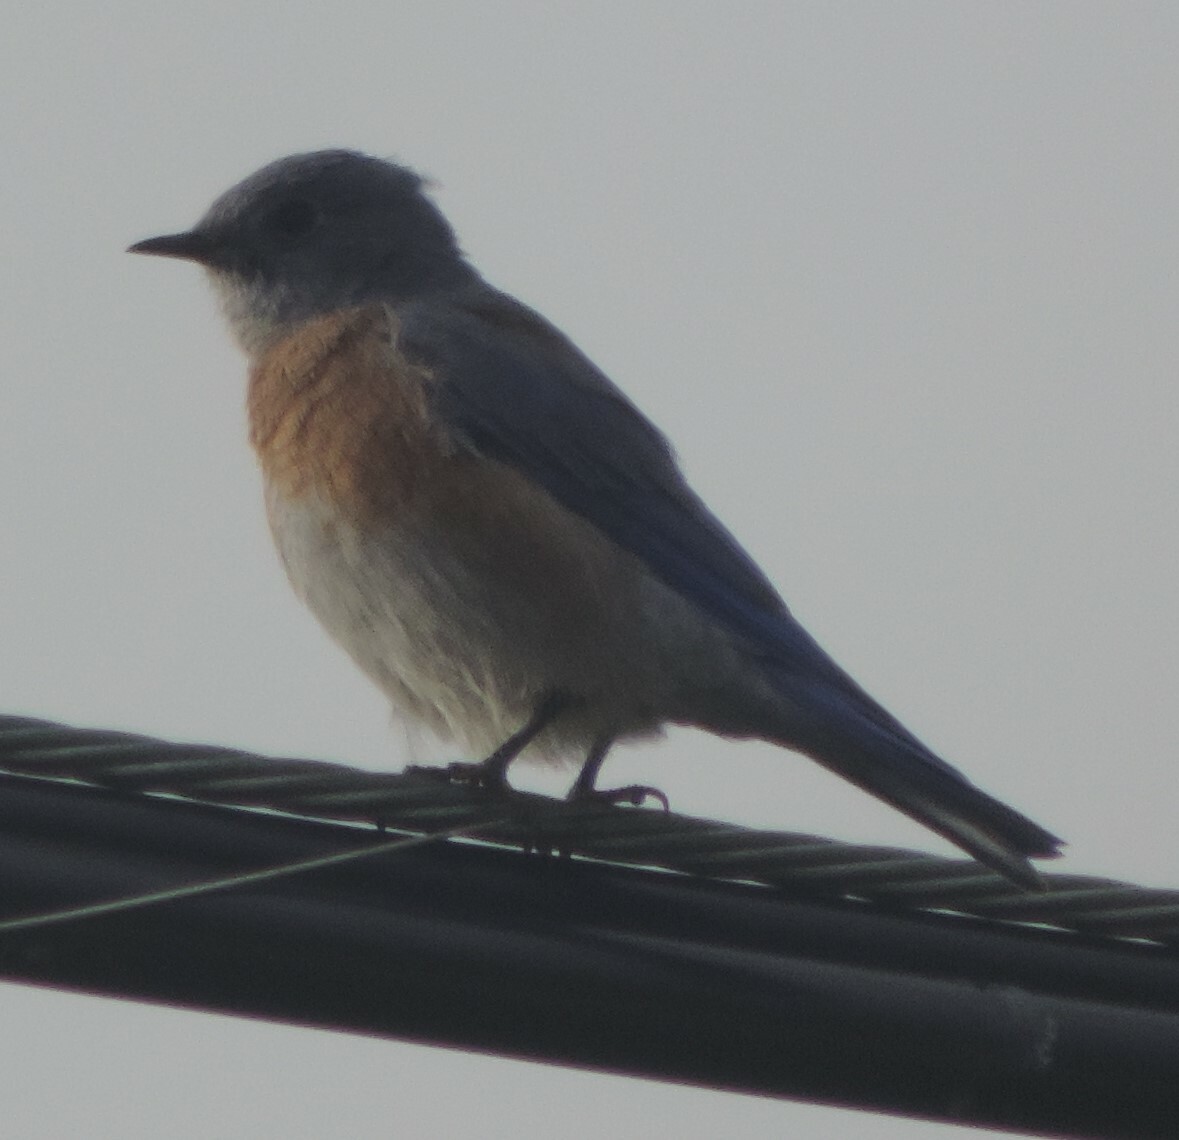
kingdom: Animalia
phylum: Chordata
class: Aves
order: Passeriformes
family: Turdidae
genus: Sialia
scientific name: Sialia mexicana
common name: Western bluebird
